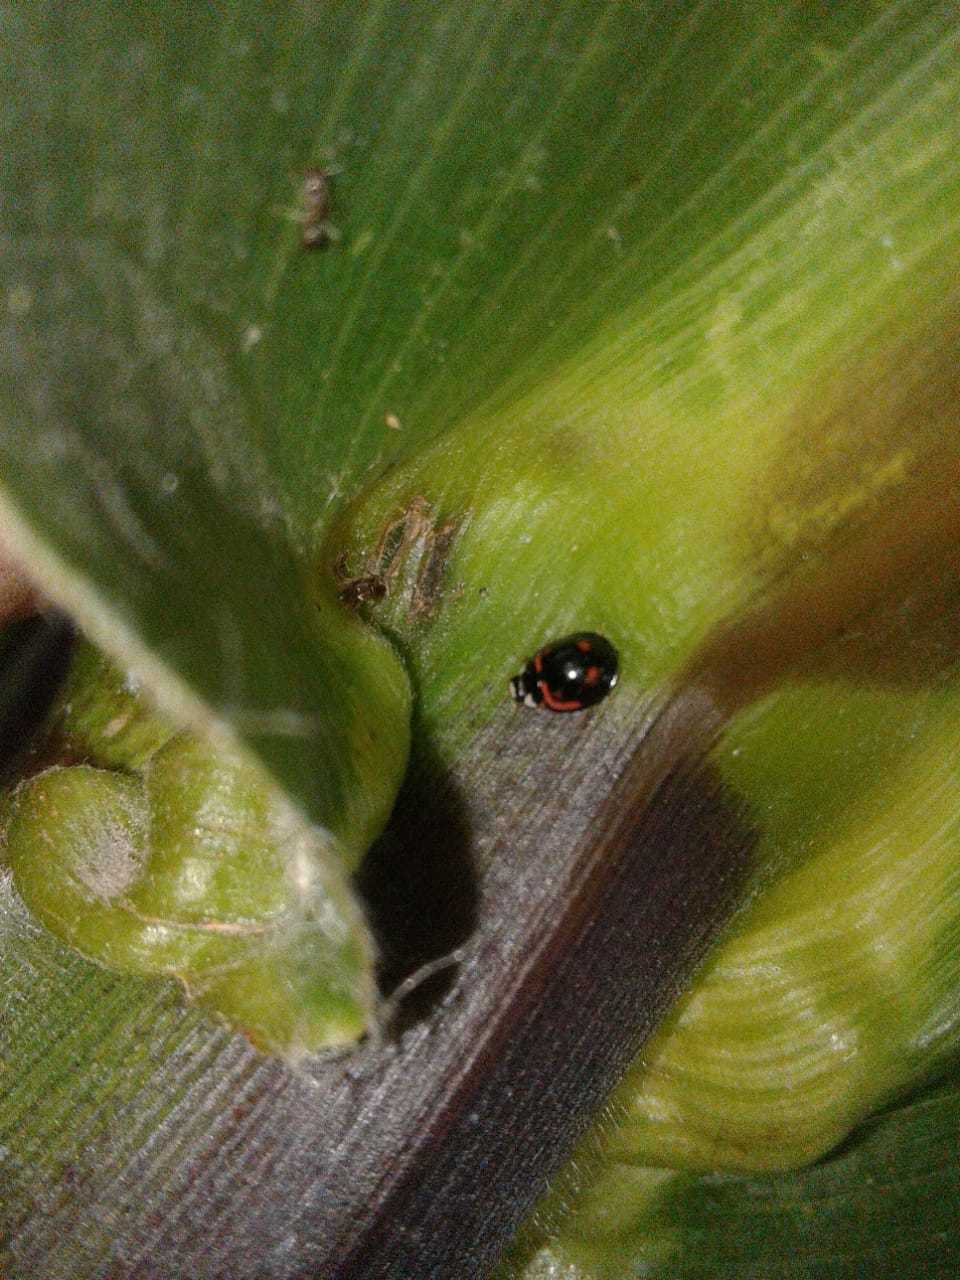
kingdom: Animalia
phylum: Arthropoda
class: Insecta
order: Coleoptera
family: Coccinellidae
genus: Cheilomenes
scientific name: Cheilomenes sexmaculata
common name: Ladybird beetle
